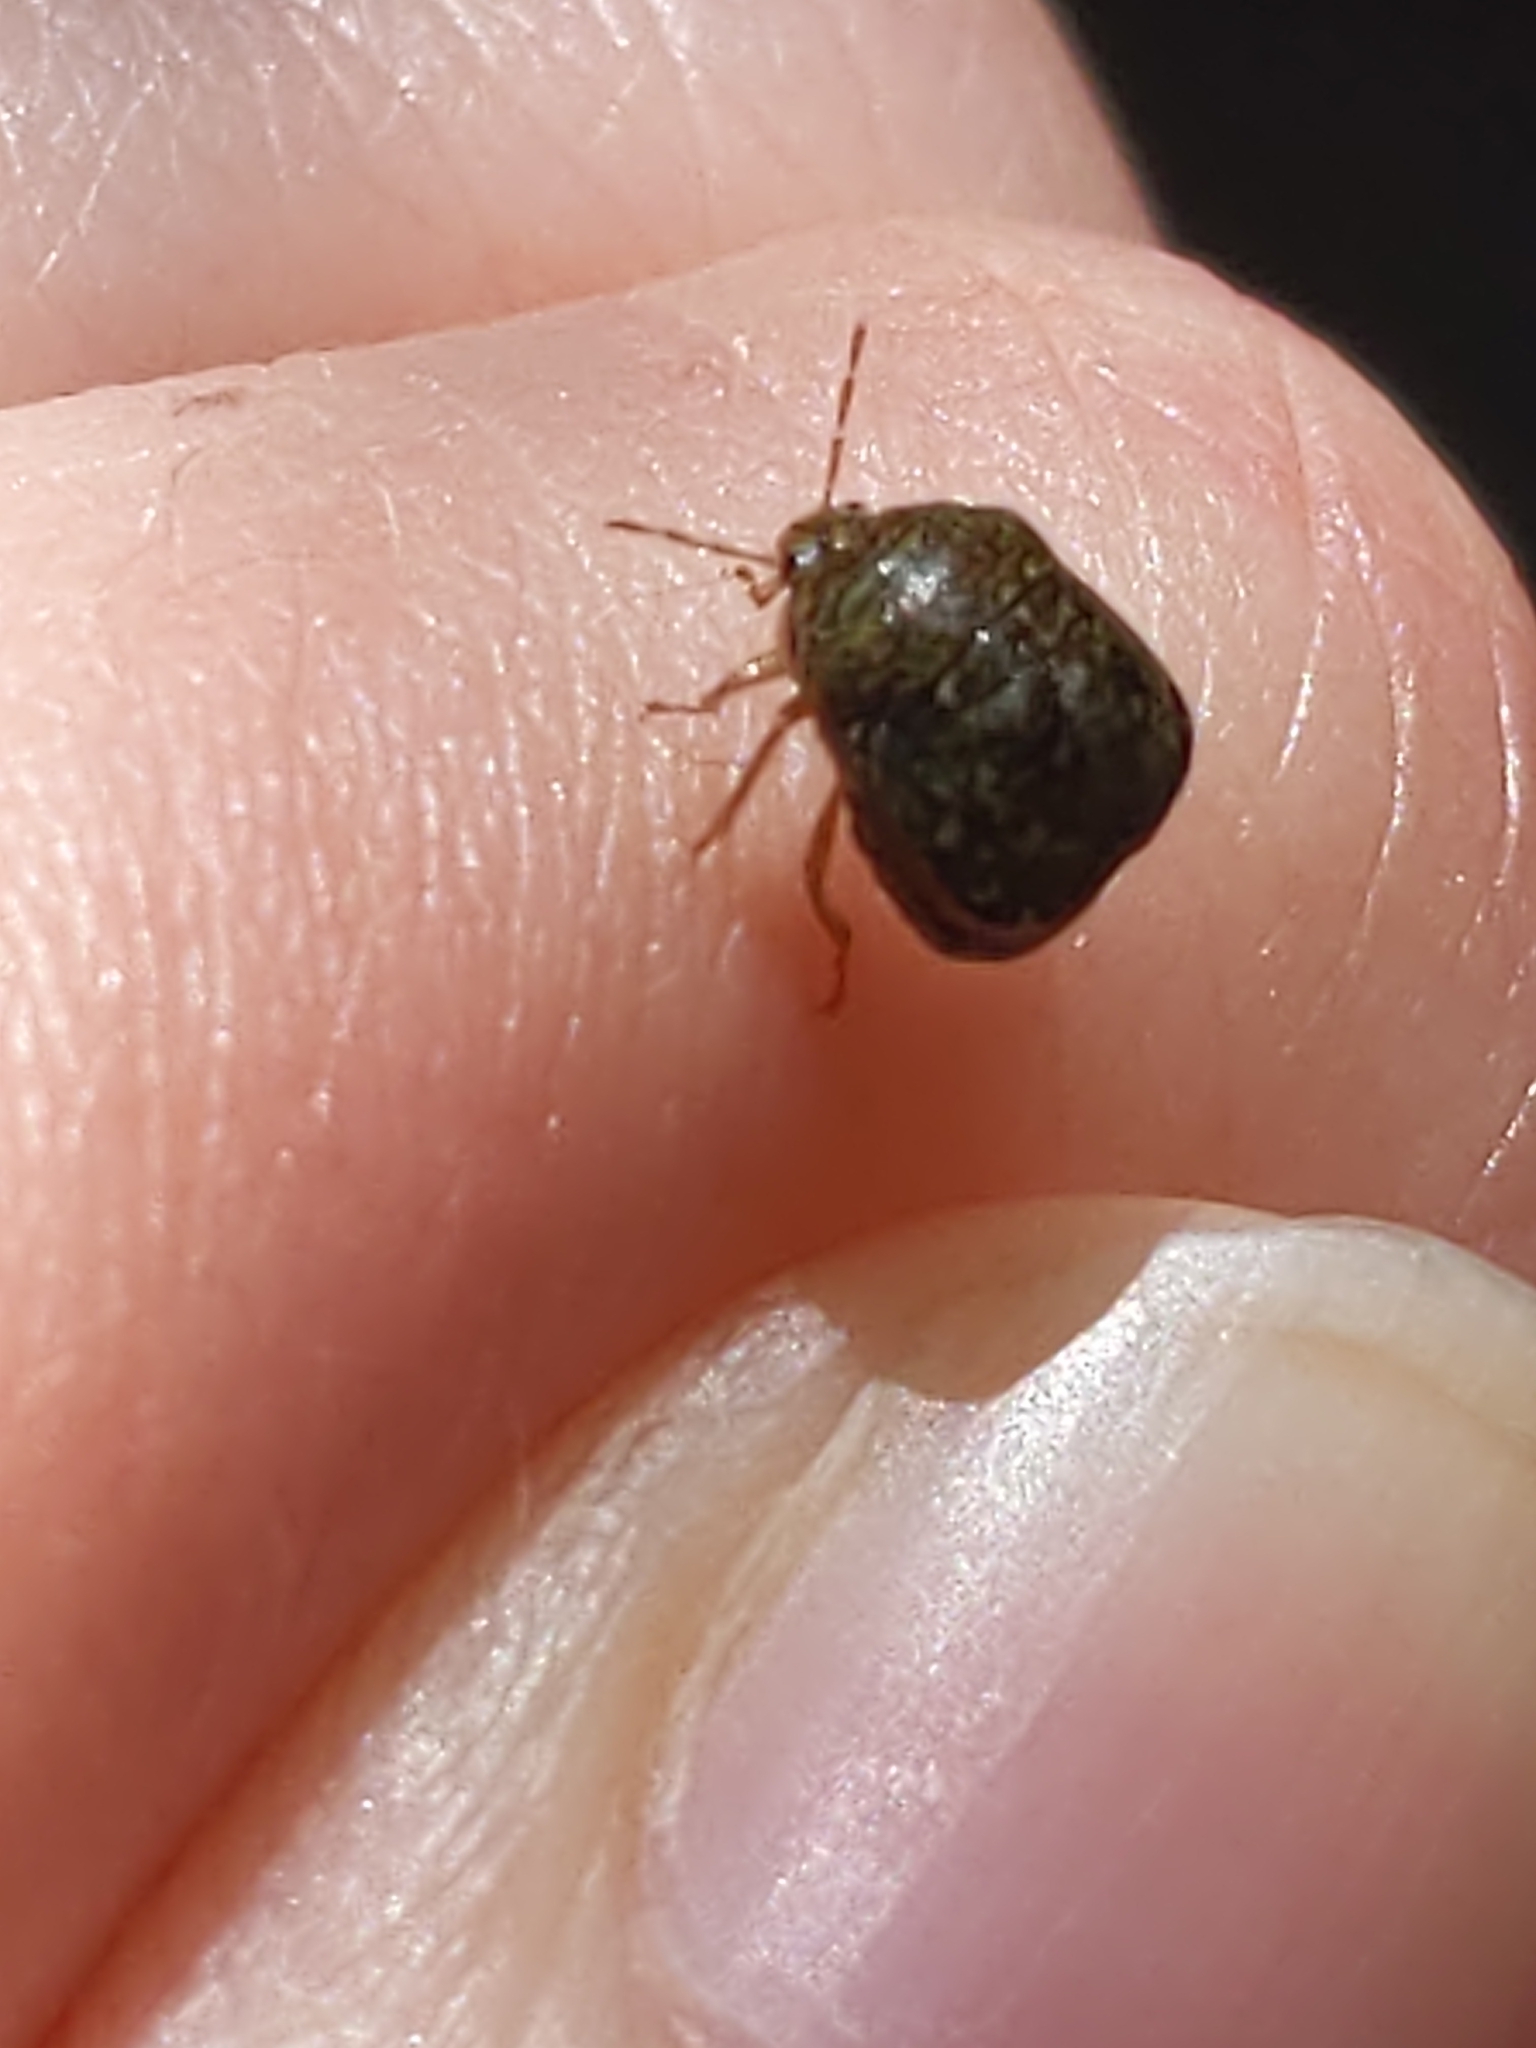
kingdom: Animalia
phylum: Arthropoda
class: Insecta
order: Hemiptera
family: Plataspidae
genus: Megacopta
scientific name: Megacopta cribraria
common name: Bean plataspid
